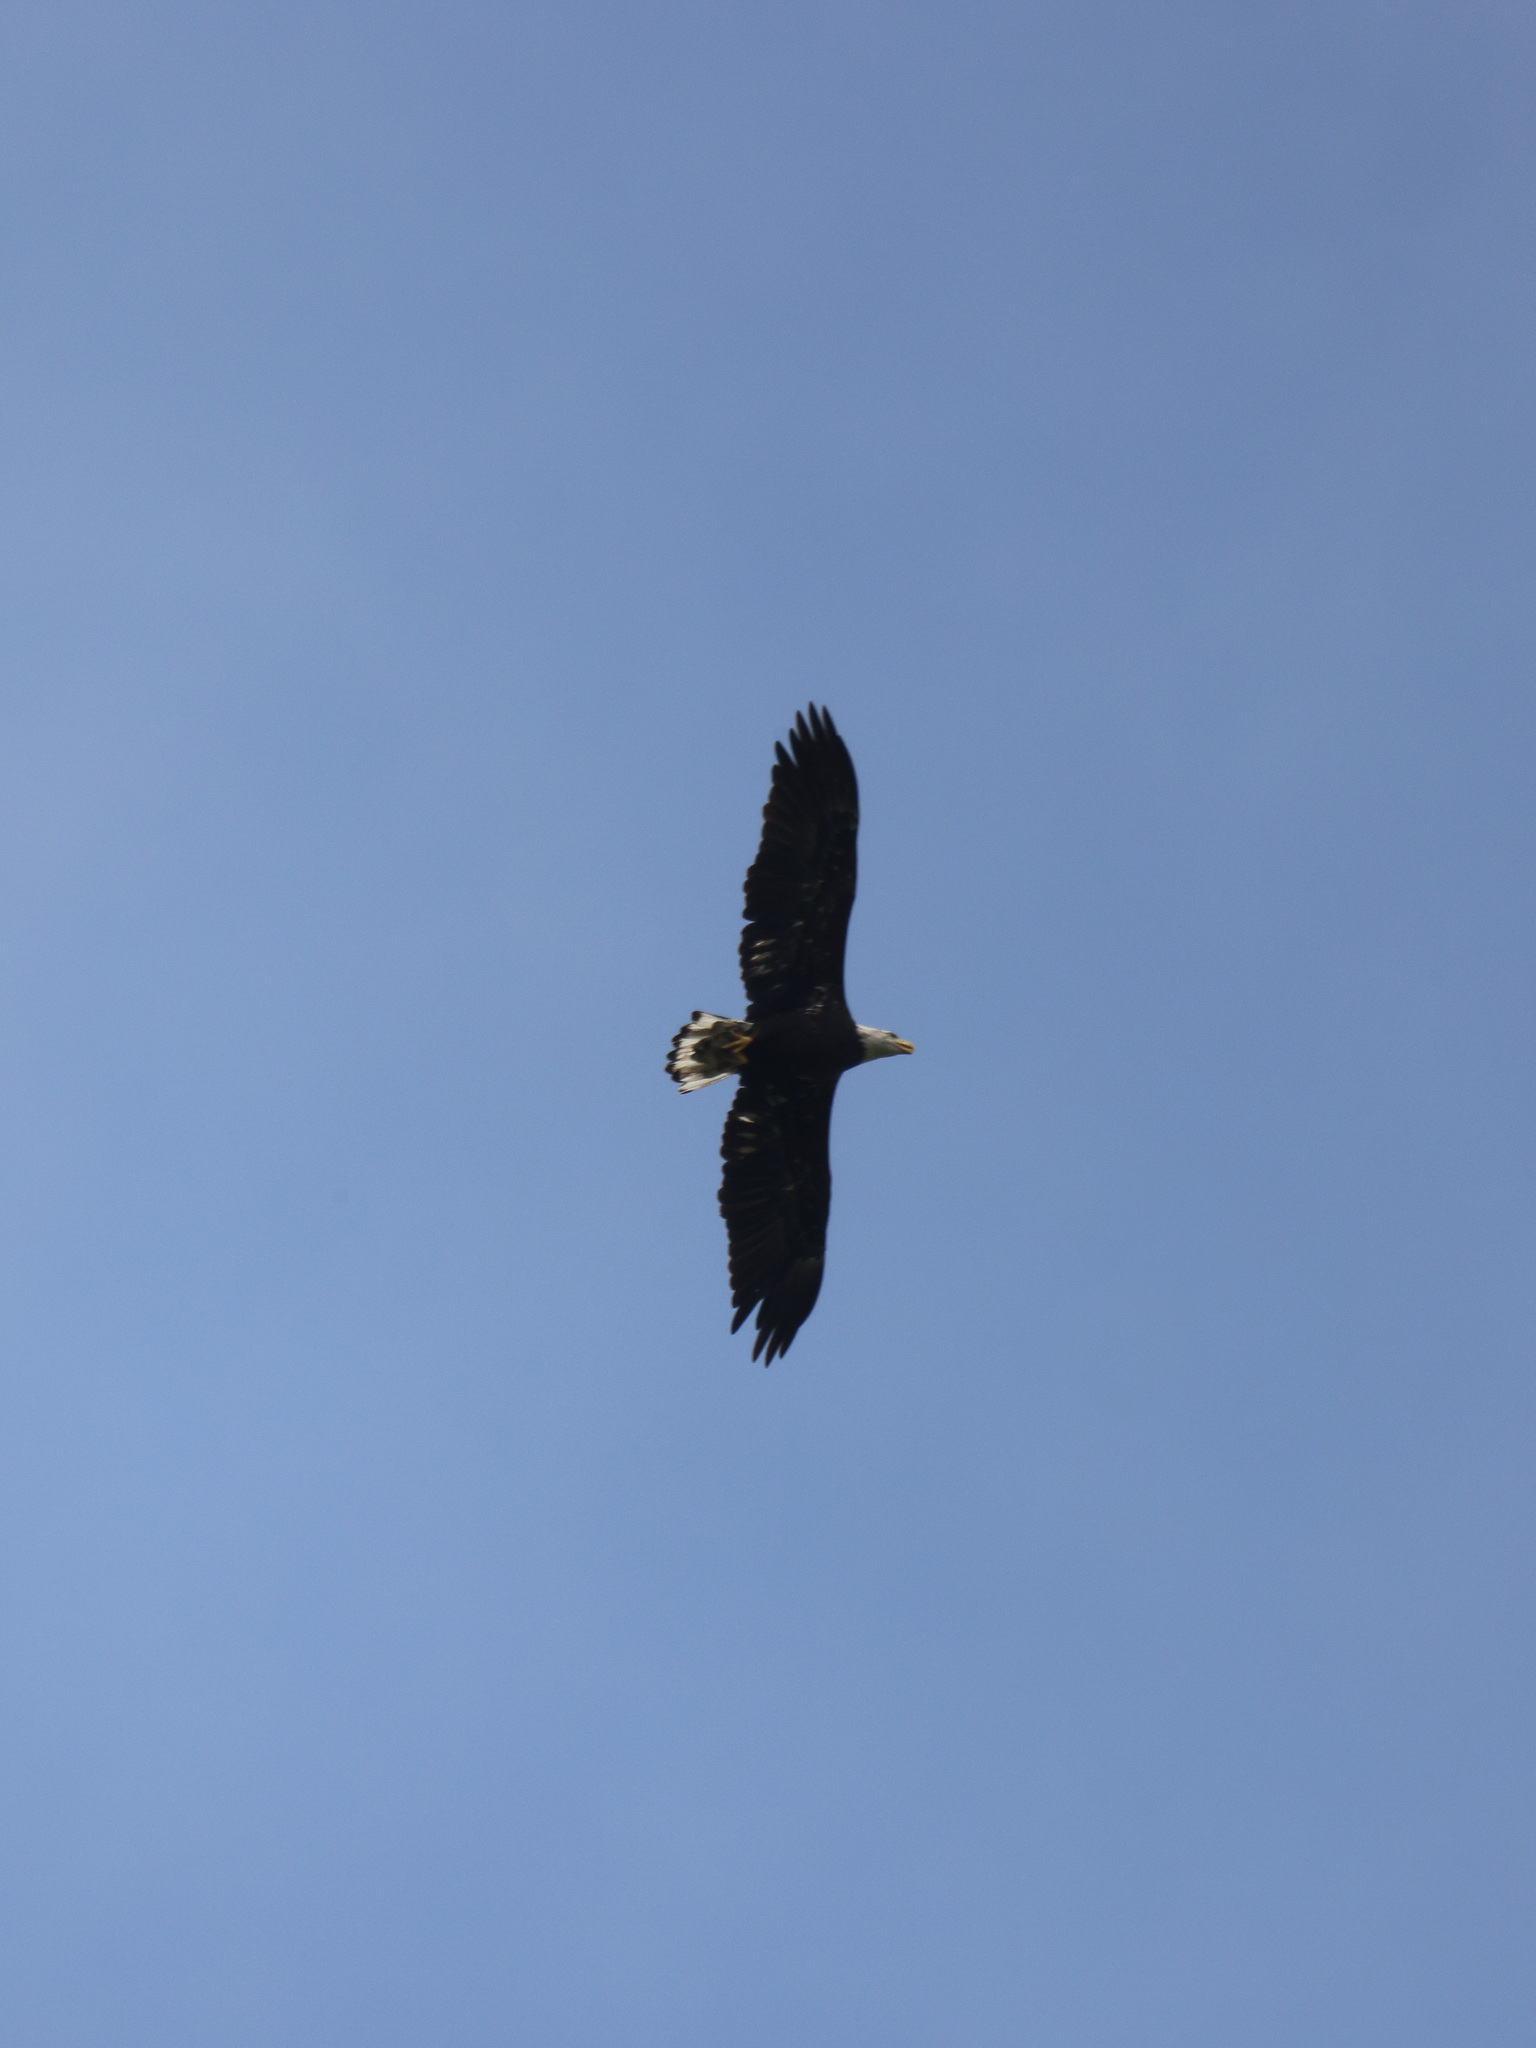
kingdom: Animalia
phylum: Chordata
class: Aves
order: Accipitriformes
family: Accipitridae
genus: Haliaeetus
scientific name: Haliaeetus leucocephalus
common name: Bald eagle
